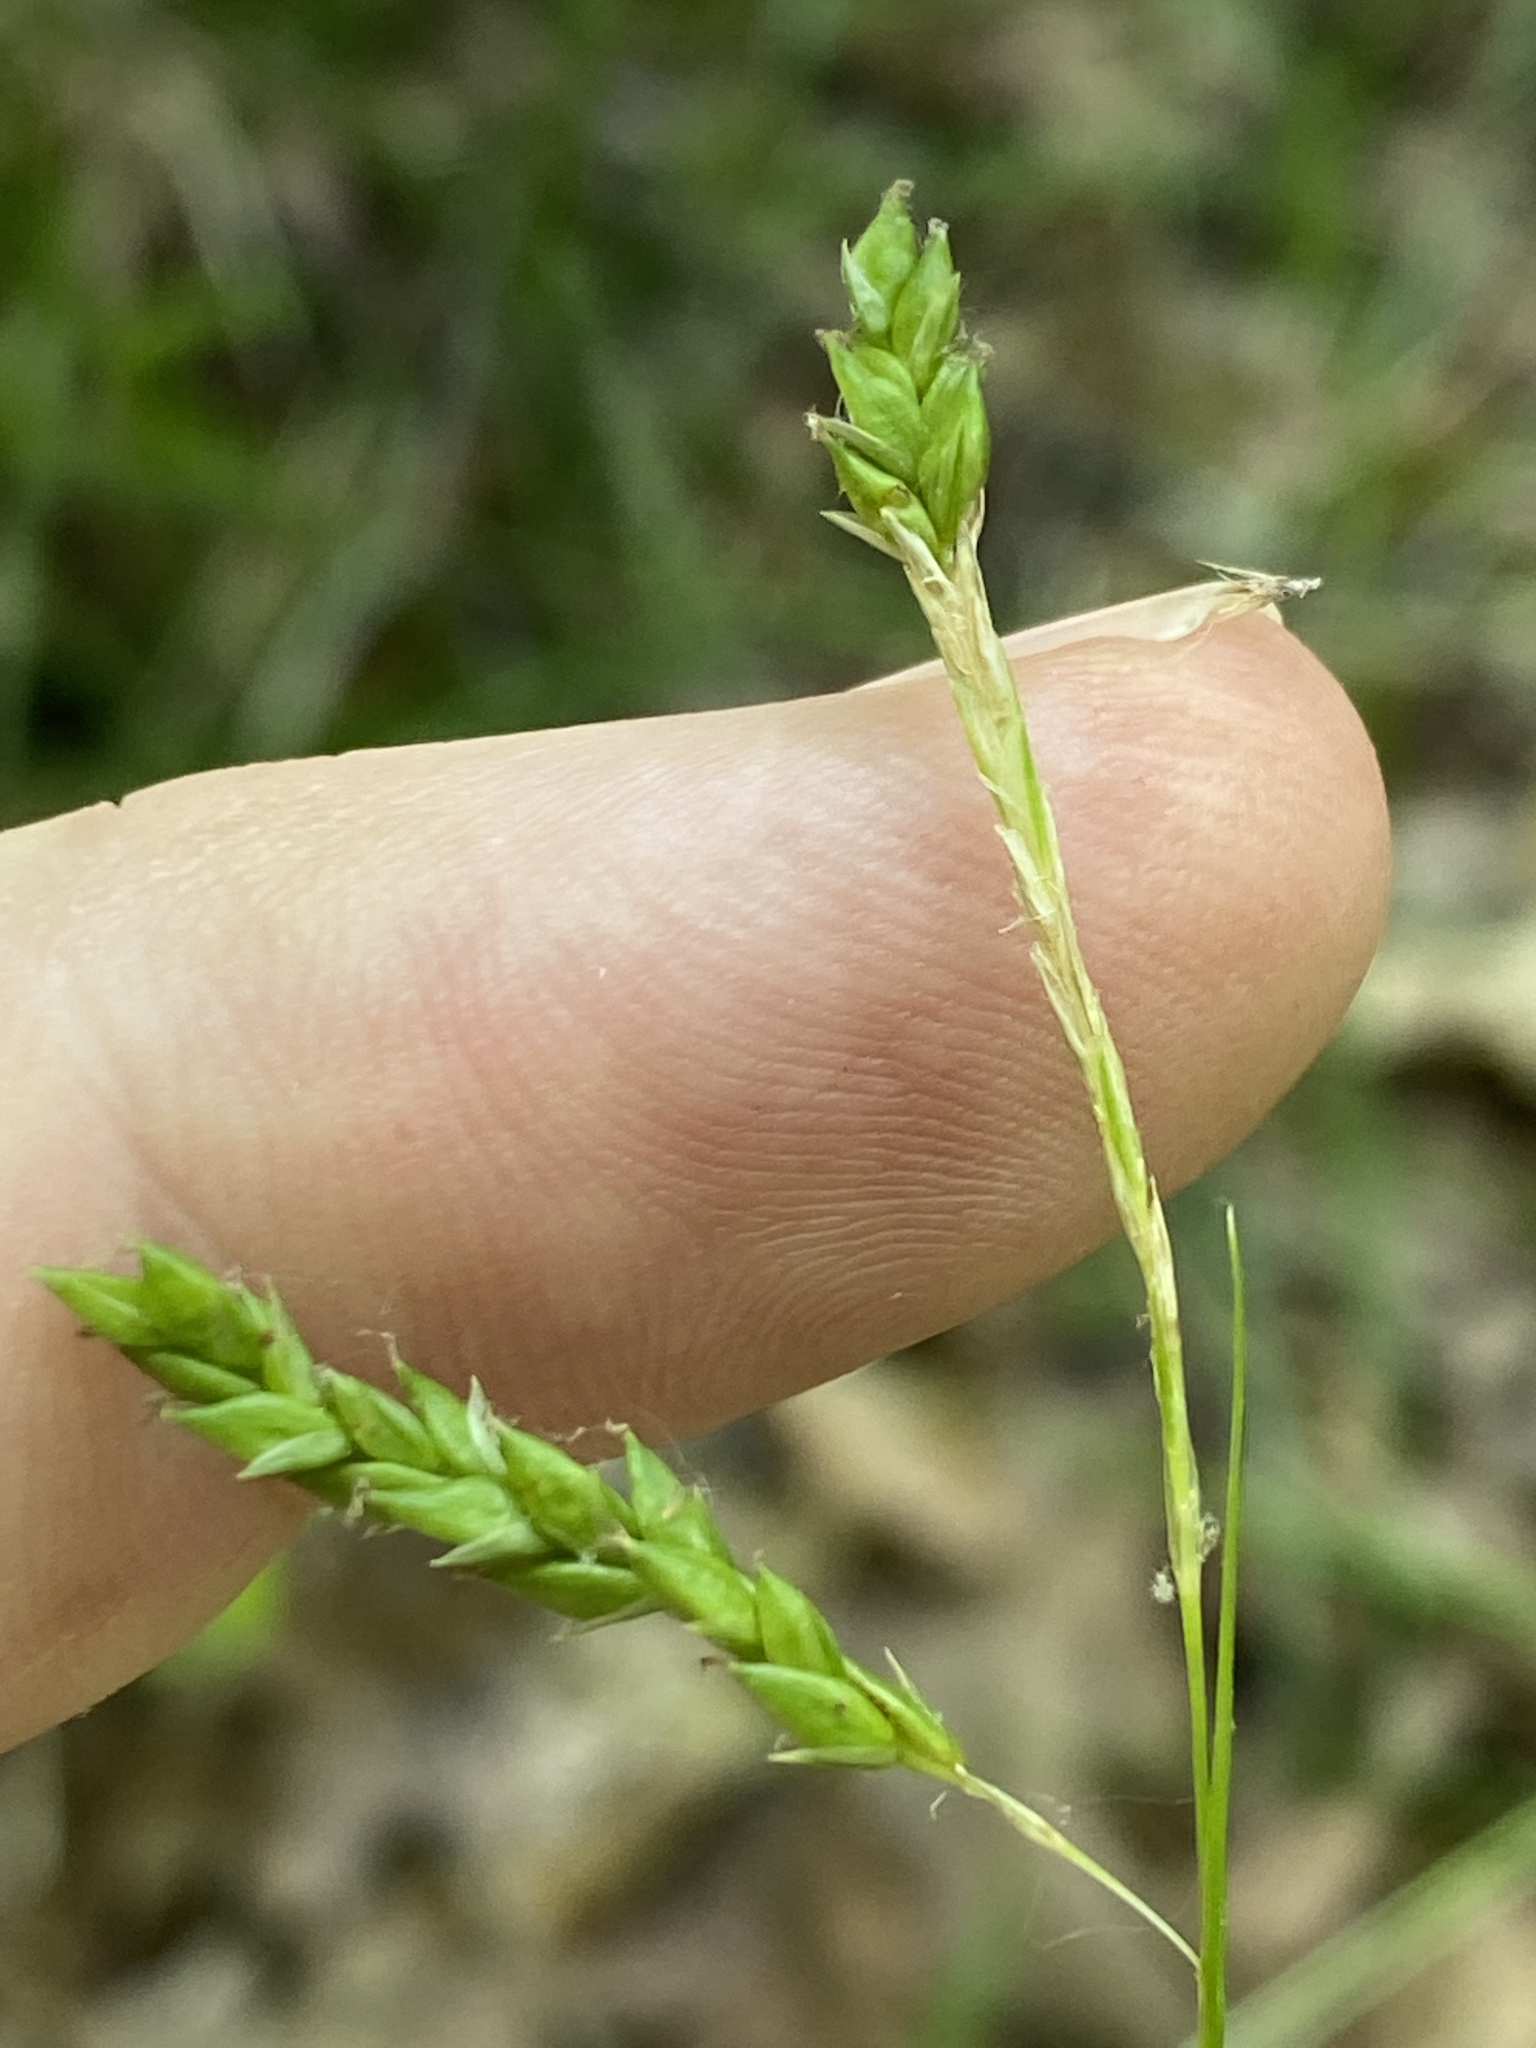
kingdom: Plantae
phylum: Tracheophyta
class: Liliopsida
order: Poales
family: Cyperaceae
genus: Carex
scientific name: Carex debilis
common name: White-edge sedge
